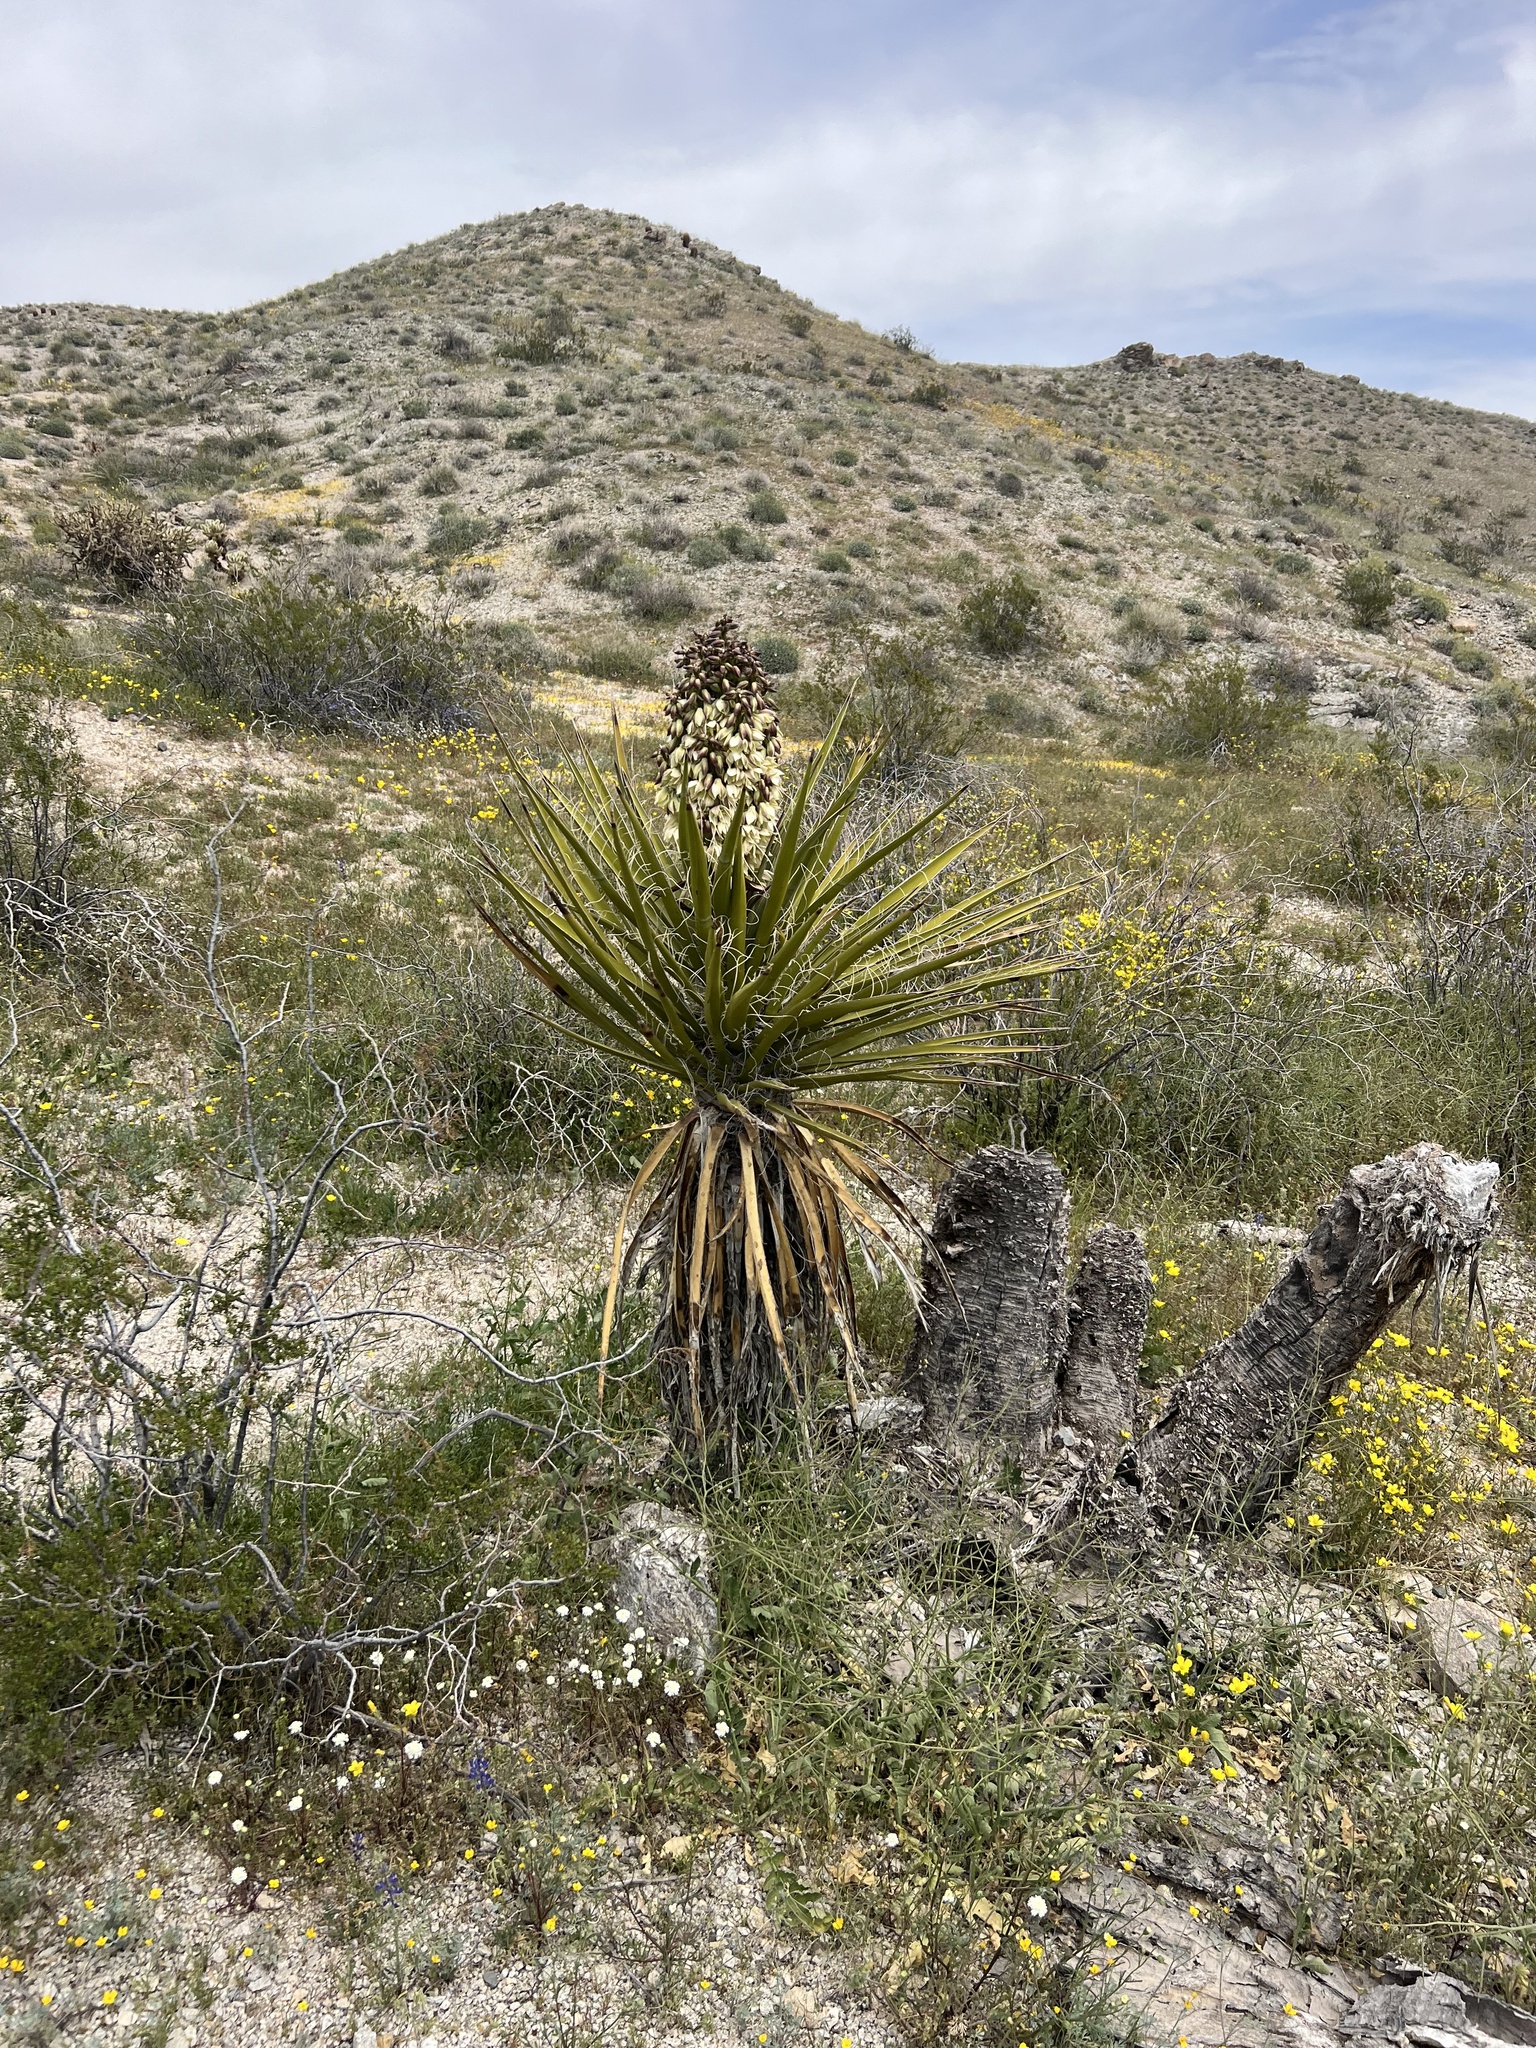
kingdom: Plantae
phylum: Tracheophyta
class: Liliopsida
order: Asparagales
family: Asparagaceae
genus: Yucca
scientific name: Yucca schidigera
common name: Mojave yucca
